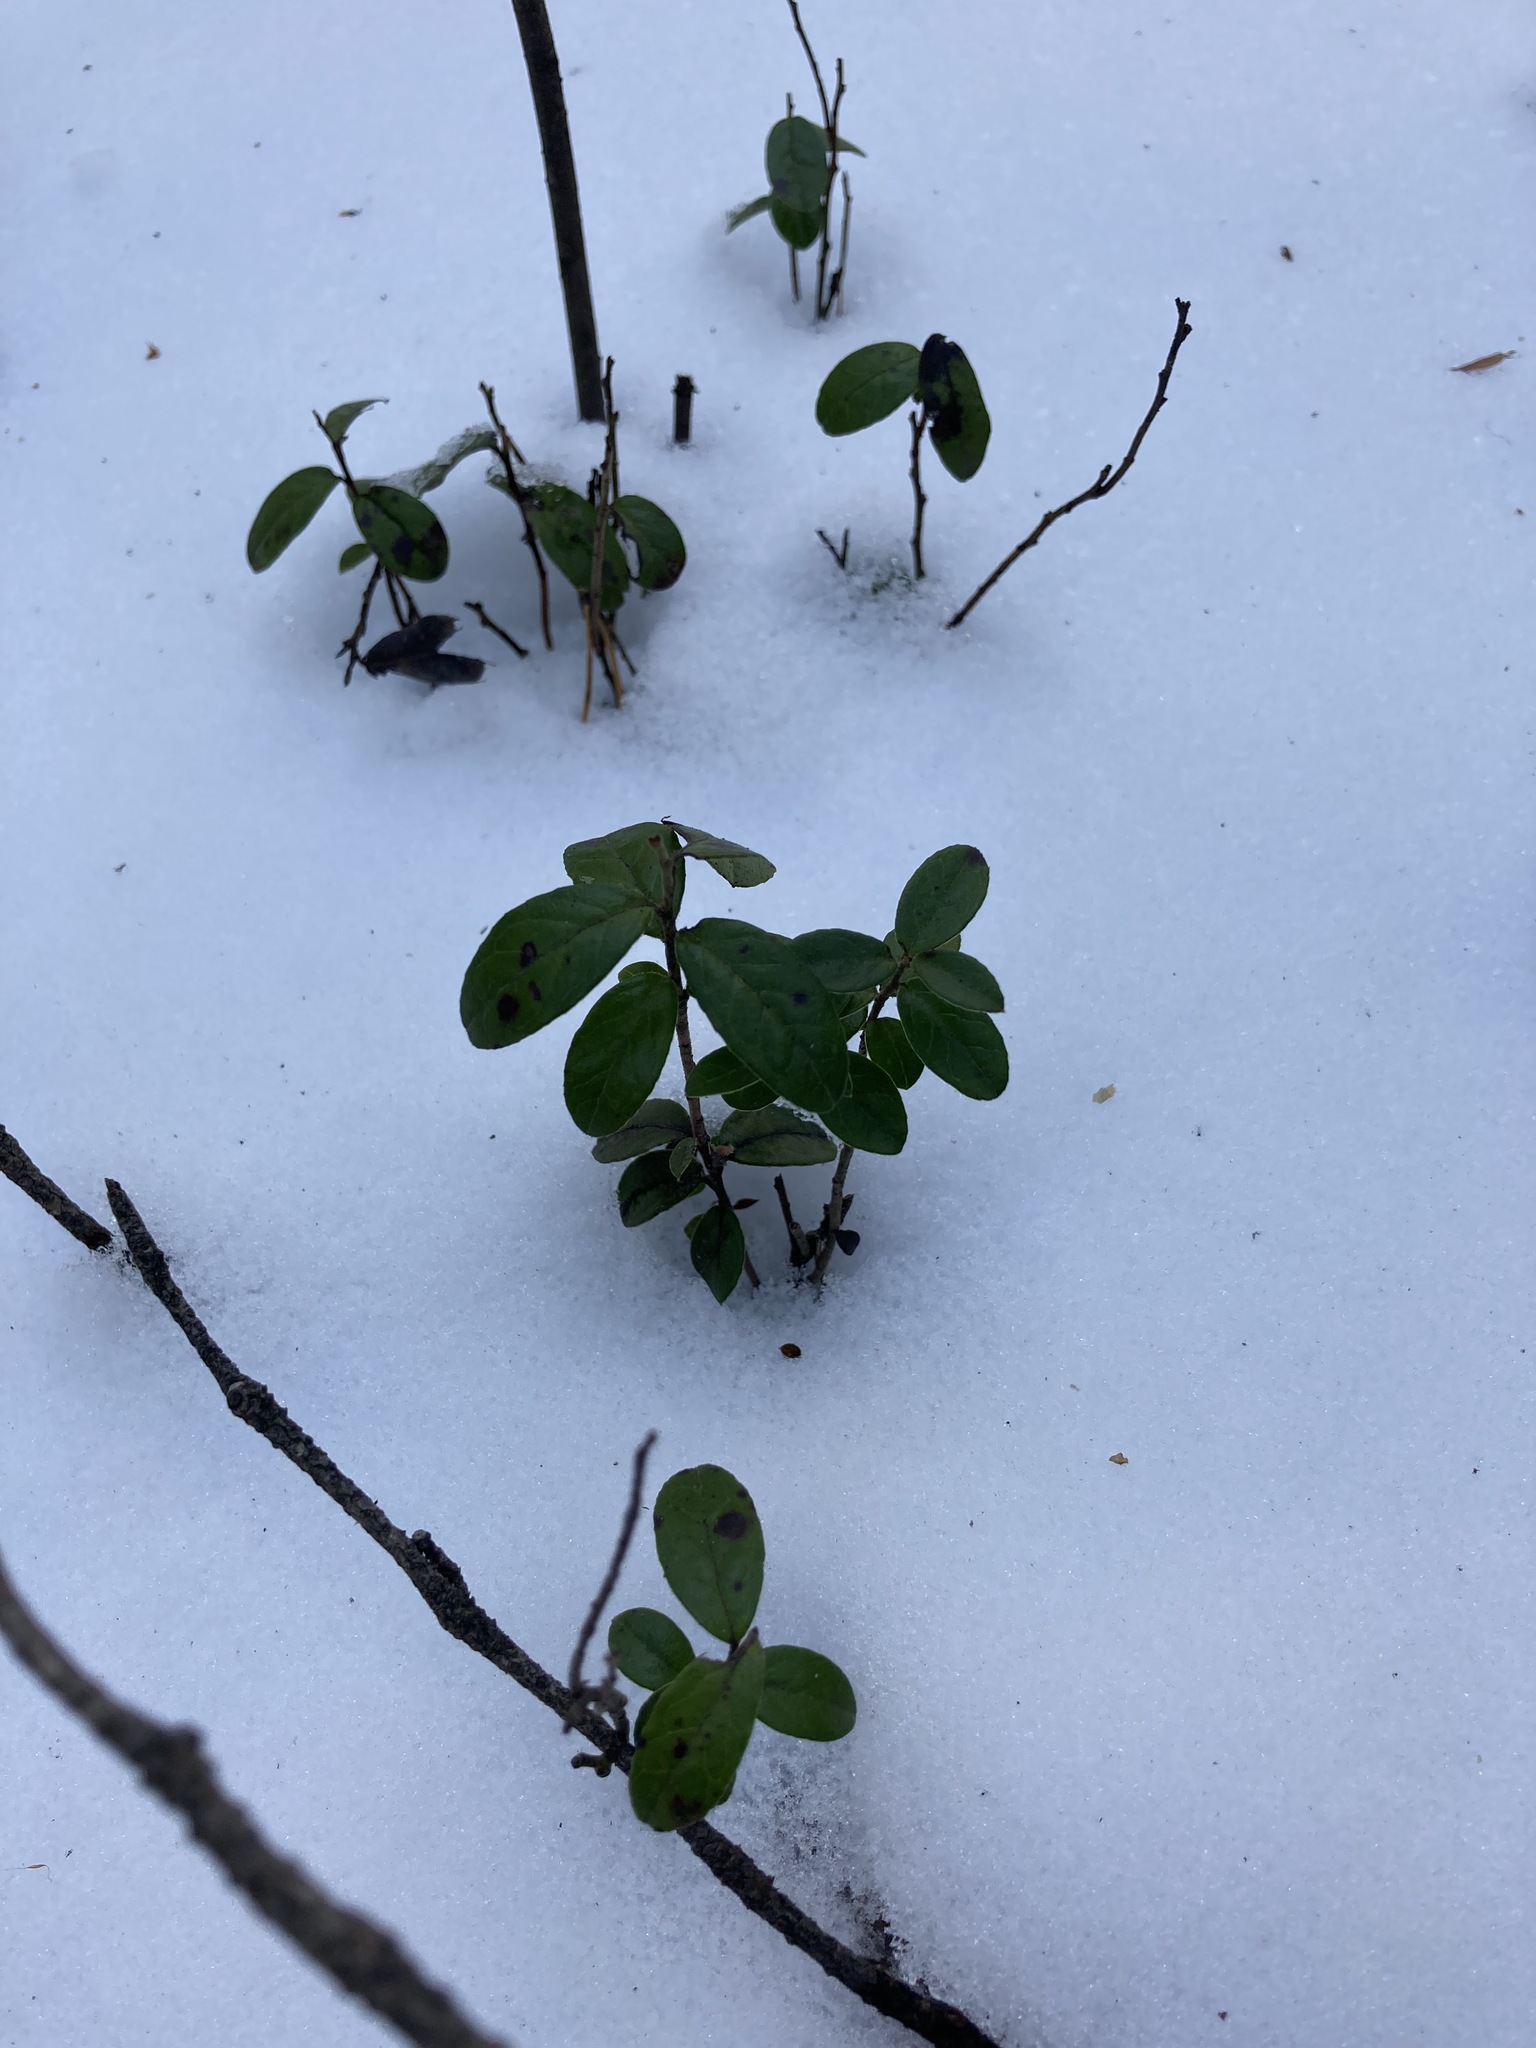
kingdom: Plantae
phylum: Tracheophyta
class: Magnoliopsida
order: Ericales
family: Ericaceae
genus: Vaccinium
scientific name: Vaccinium vitis-idaea
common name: Cowberry
